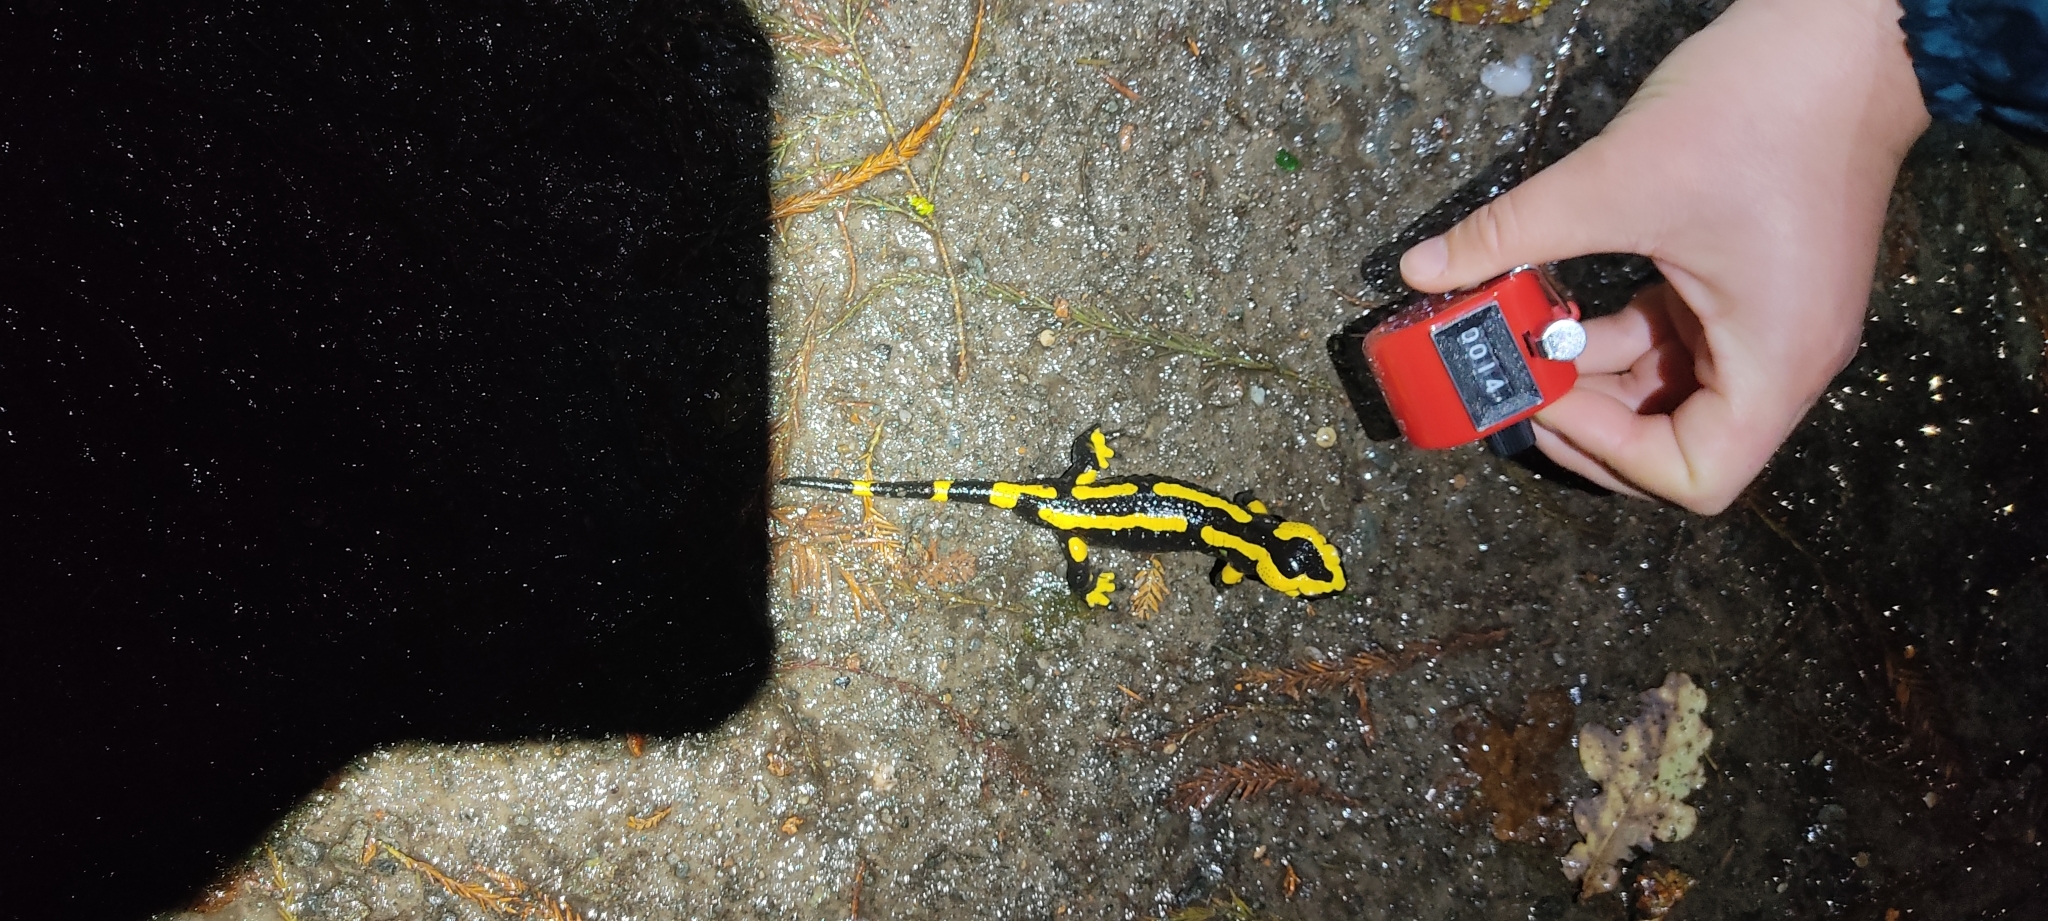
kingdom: Animalia
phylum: Chordata
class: Amphibia
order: Caudata
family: Salamandridae
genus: Salamandra
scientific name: Salamandra salamandra
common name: Fire salamander
